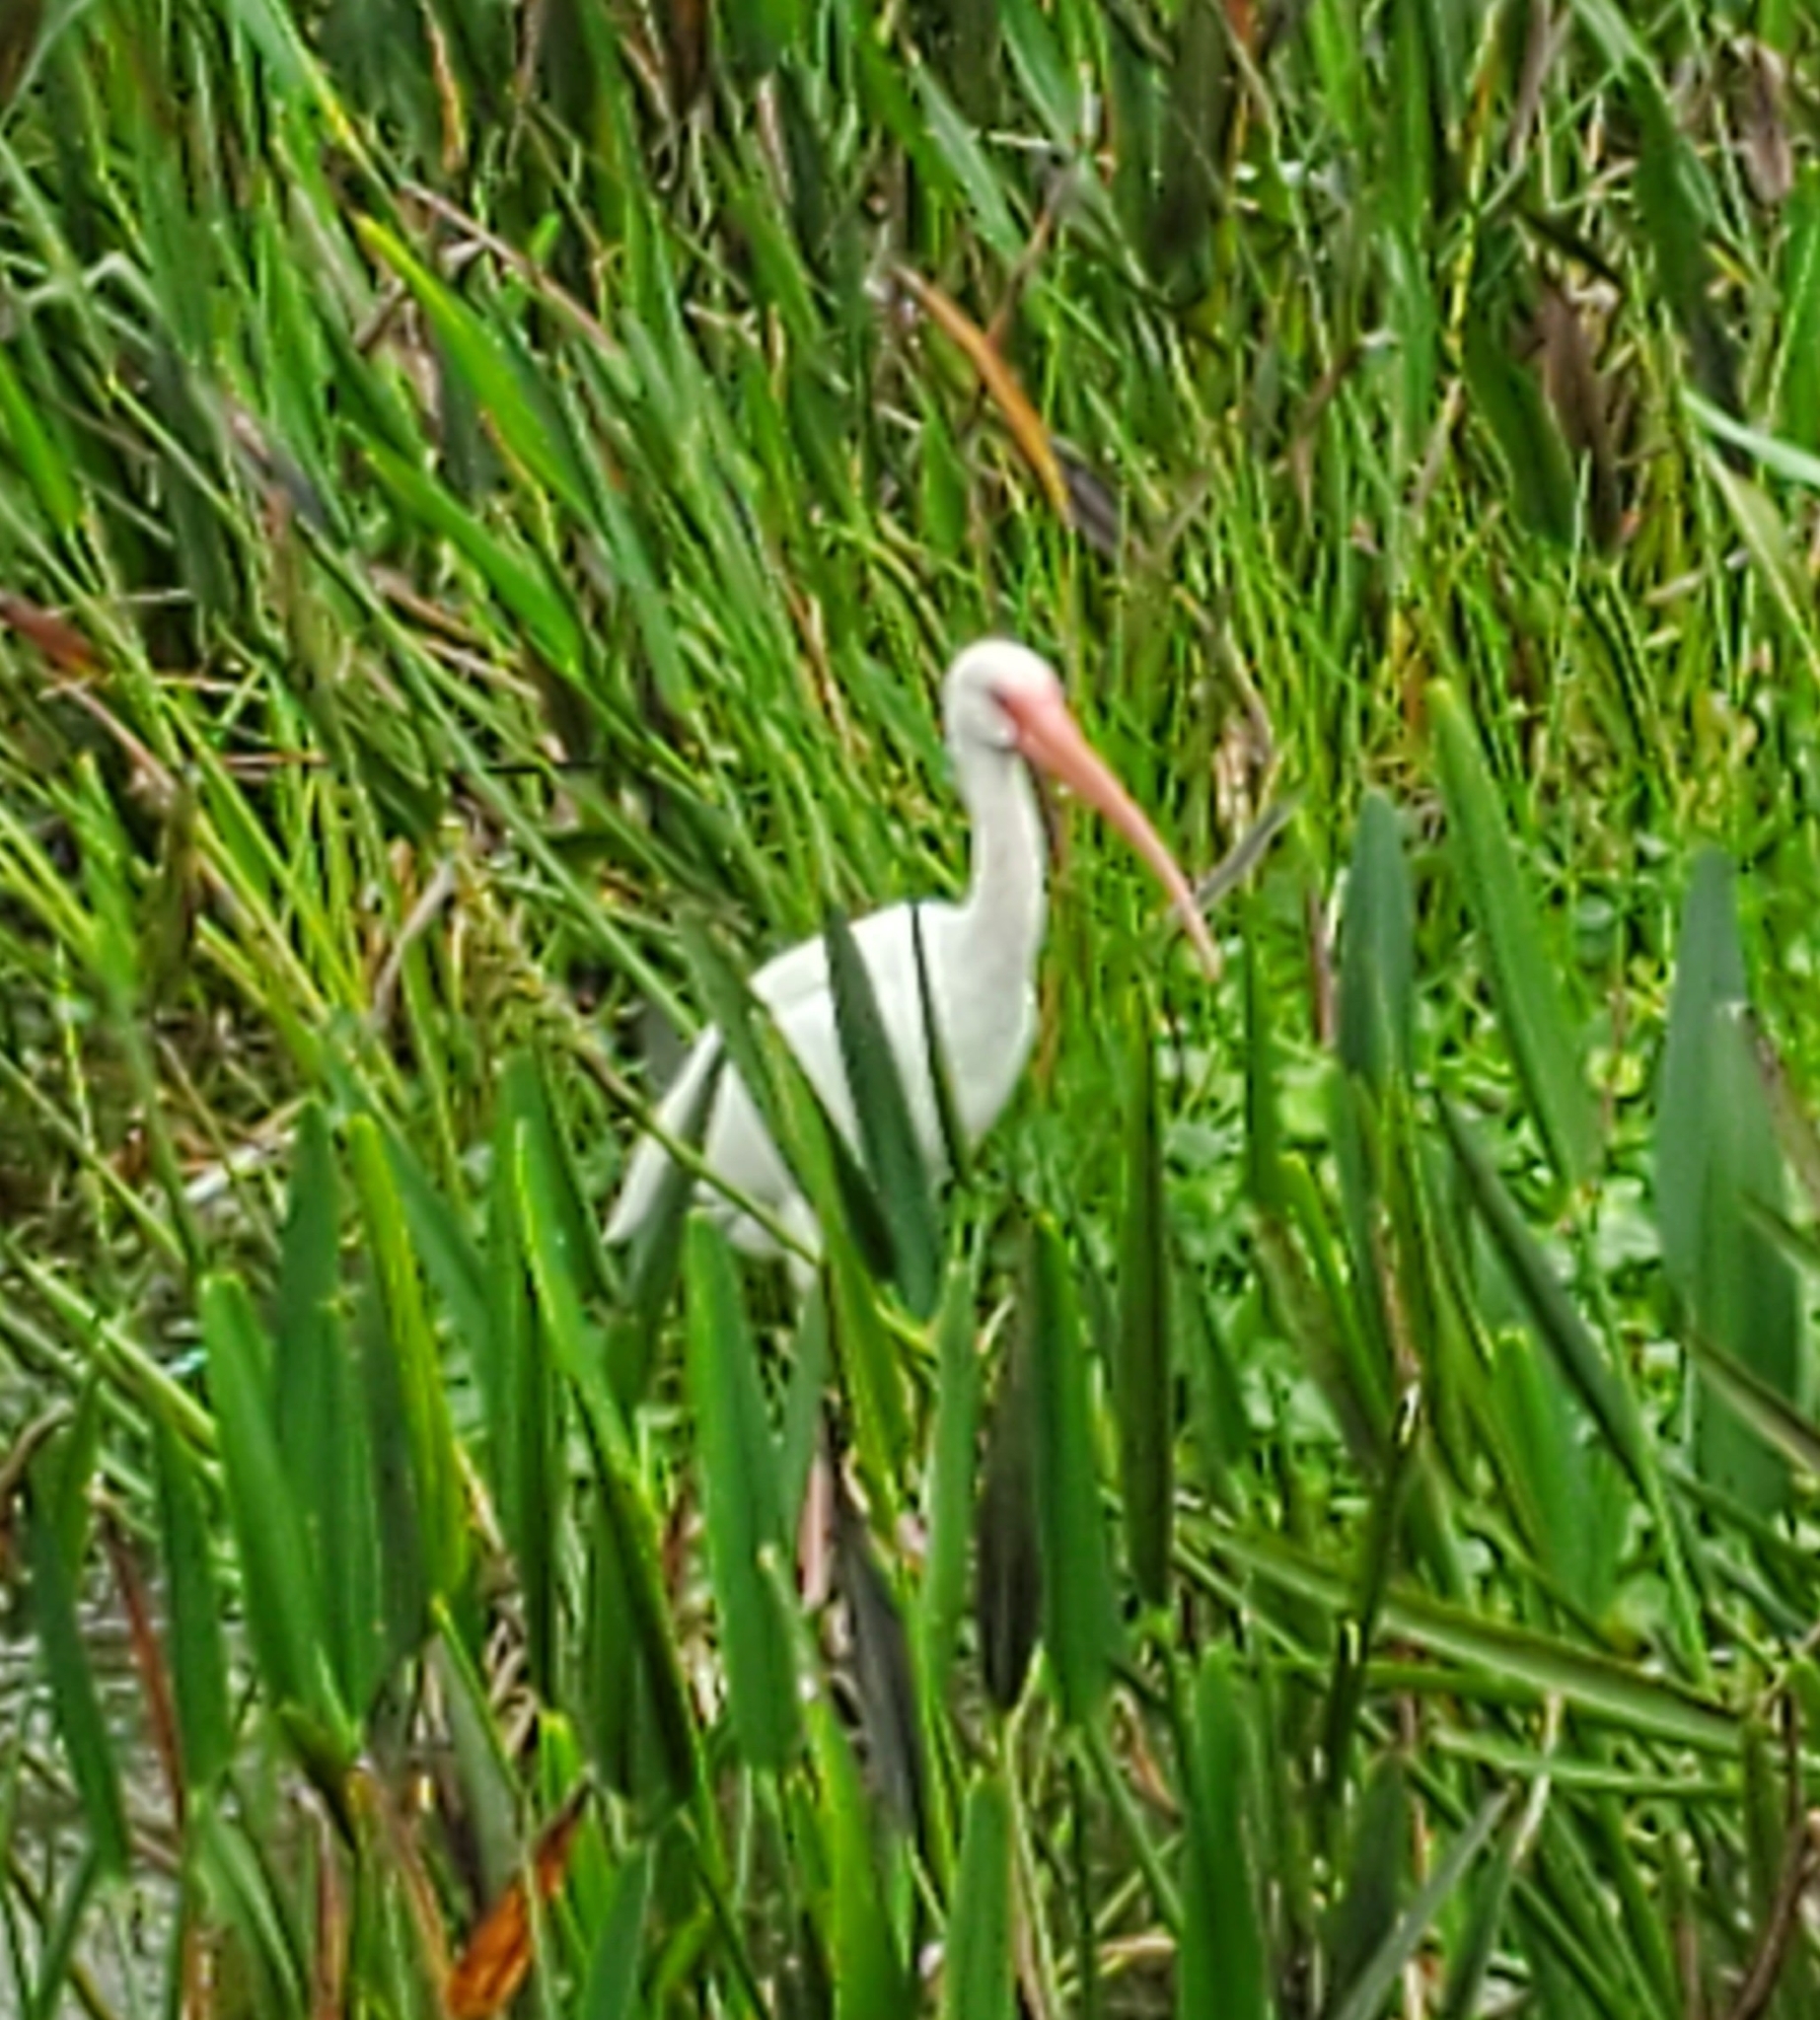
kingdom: Animalia
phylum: Chordata
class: Aves
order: Pelecaniformes
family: Threskiornithidae
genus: Eudocimus
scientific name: Eudocimus albus
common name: White ibis
